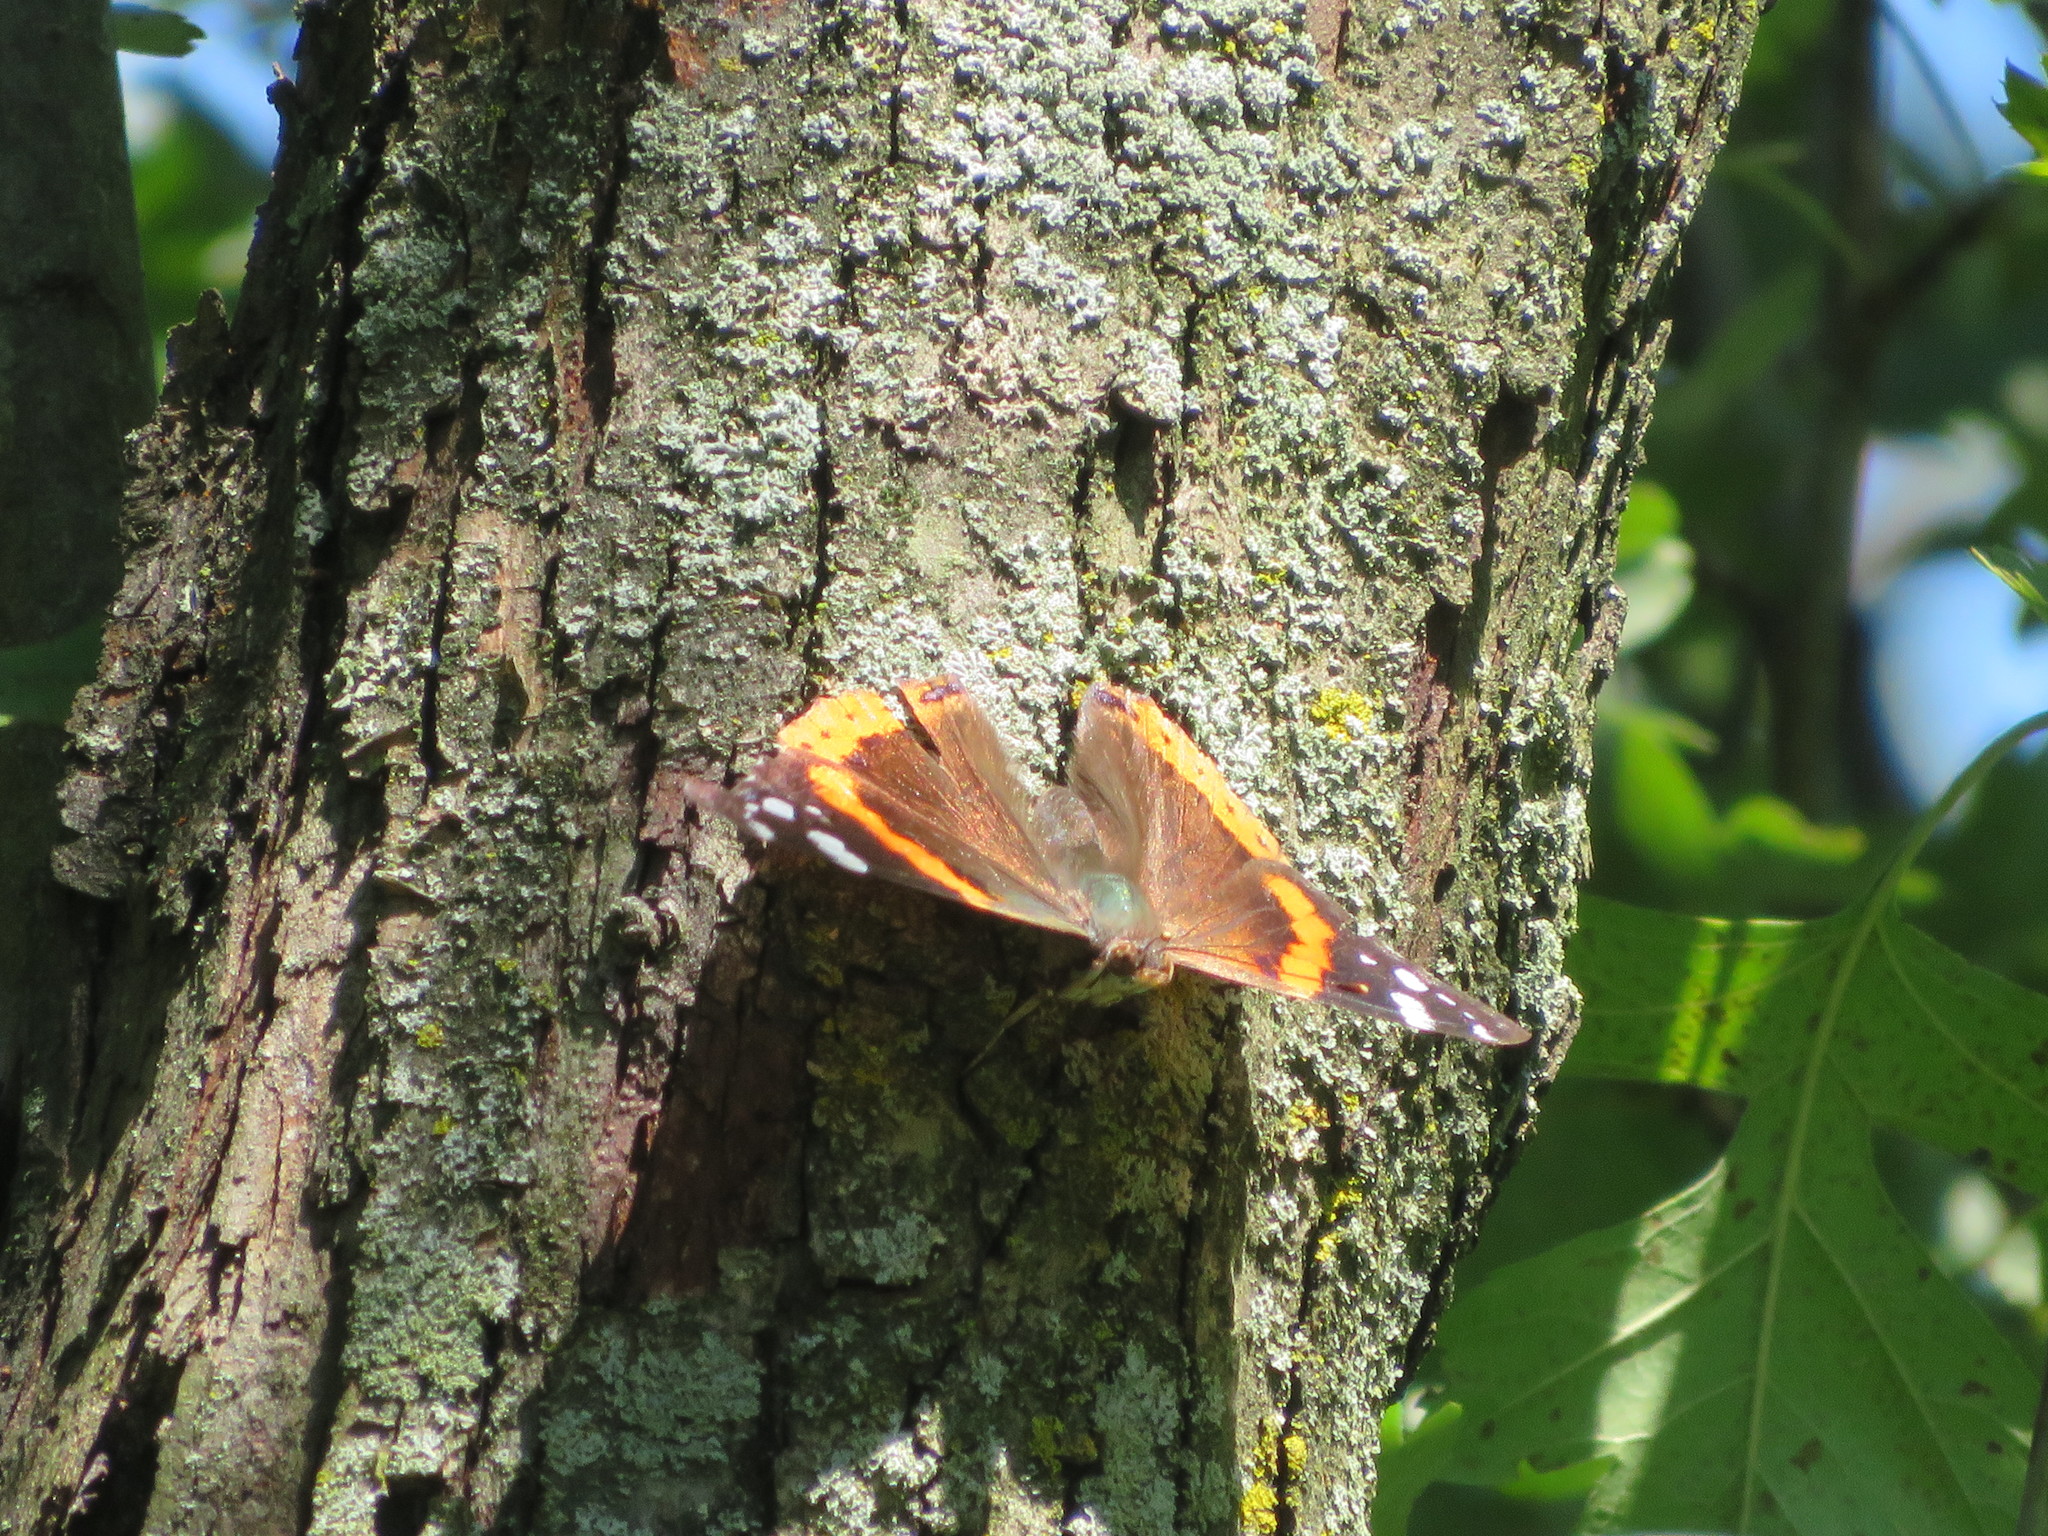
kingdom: Animalia
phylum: Arthropoda
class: Insecta
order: Lepidoptera
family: Nymphalidae
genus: Vanessa
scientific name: Vanessa atalanta
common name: Red admiral
